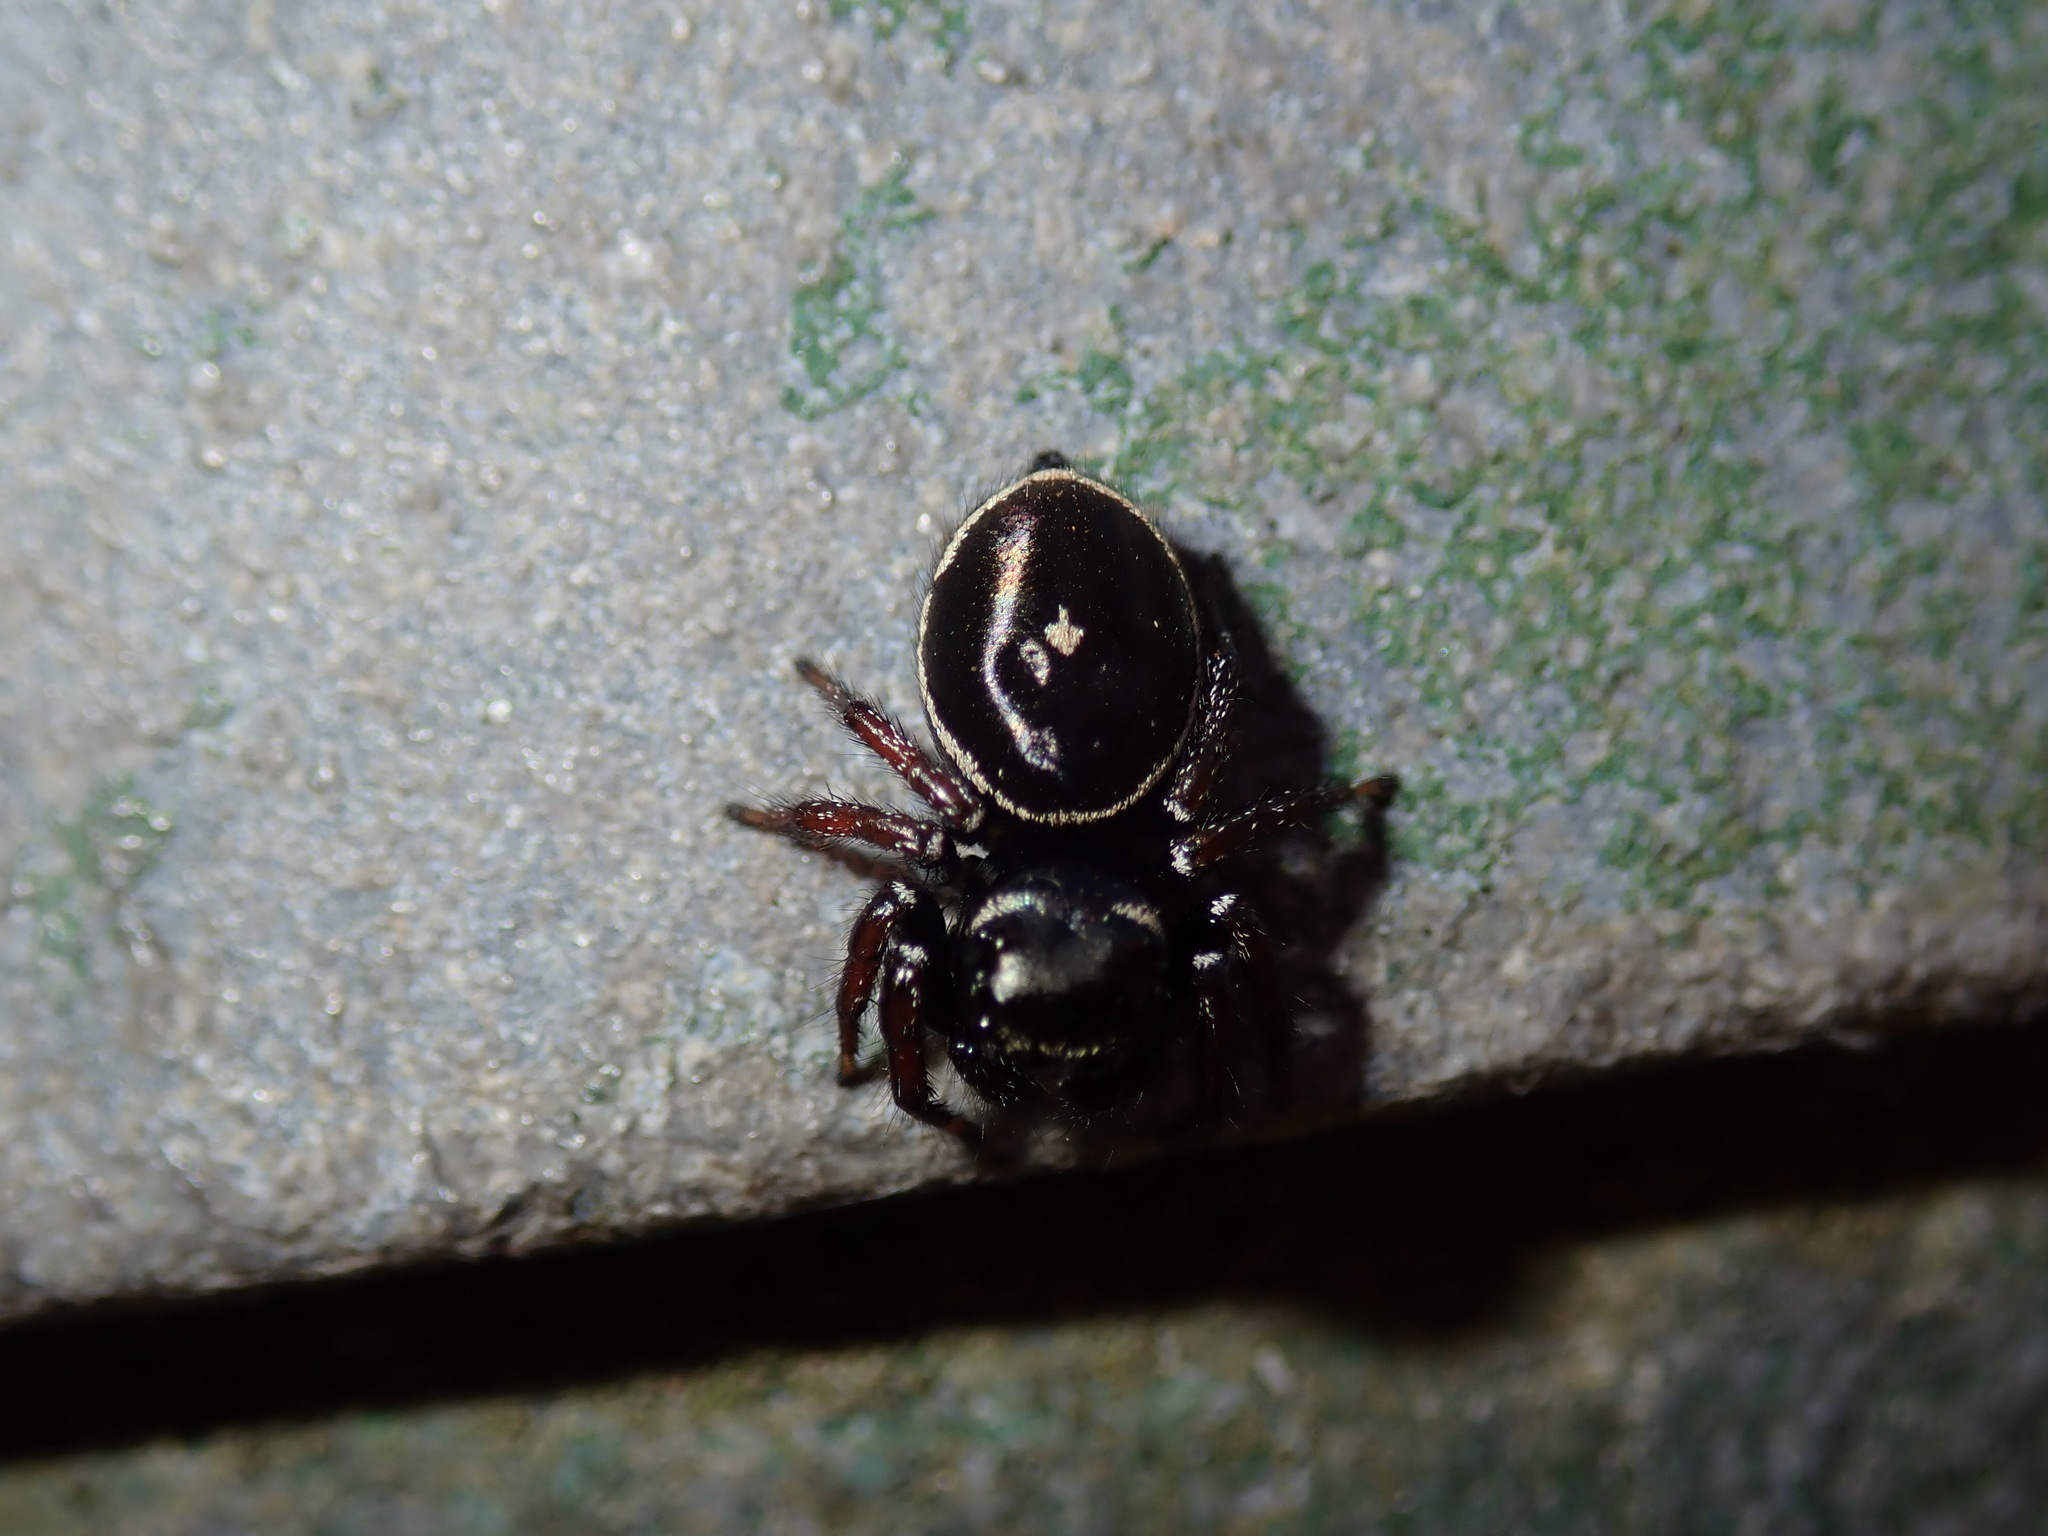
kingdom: Animalia
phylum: Arthropoda
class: Arachnida
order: Araneae
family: Salticidae
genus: Zenodorus
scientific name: Zenodorus orbiculatus
